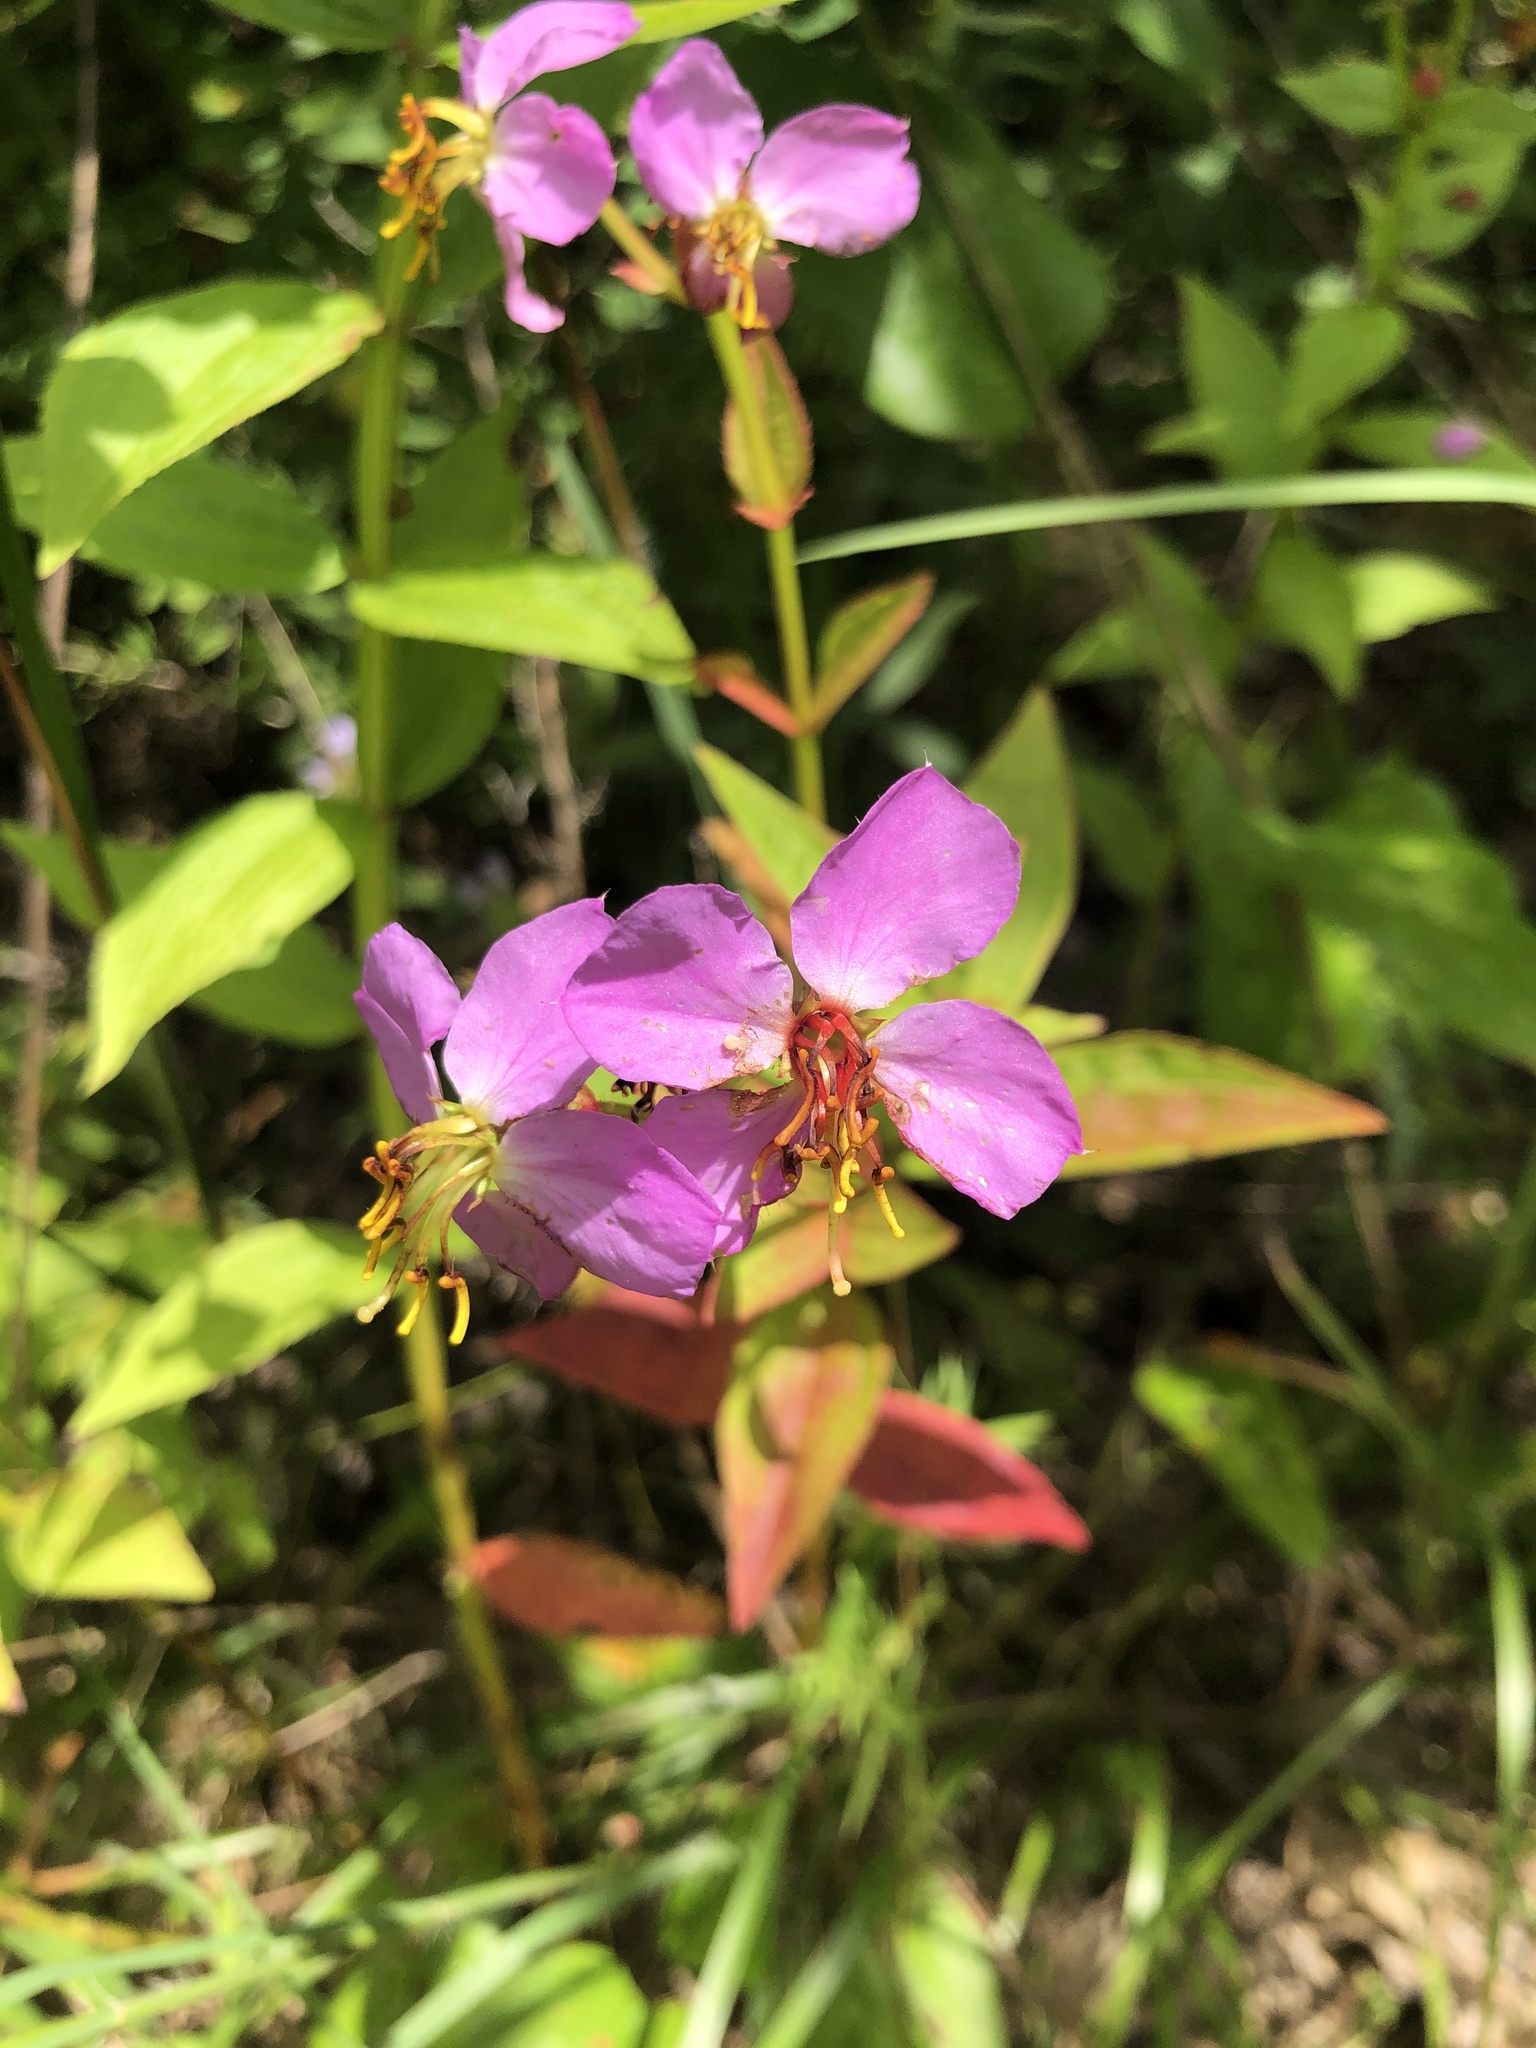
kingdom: Plantae
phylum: Tracheophyta
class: Magnoliopsida
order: Myrtales
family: Melastomataceae
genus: Rhexia
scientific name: Rhexia virginica
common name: Common meadow beauty
